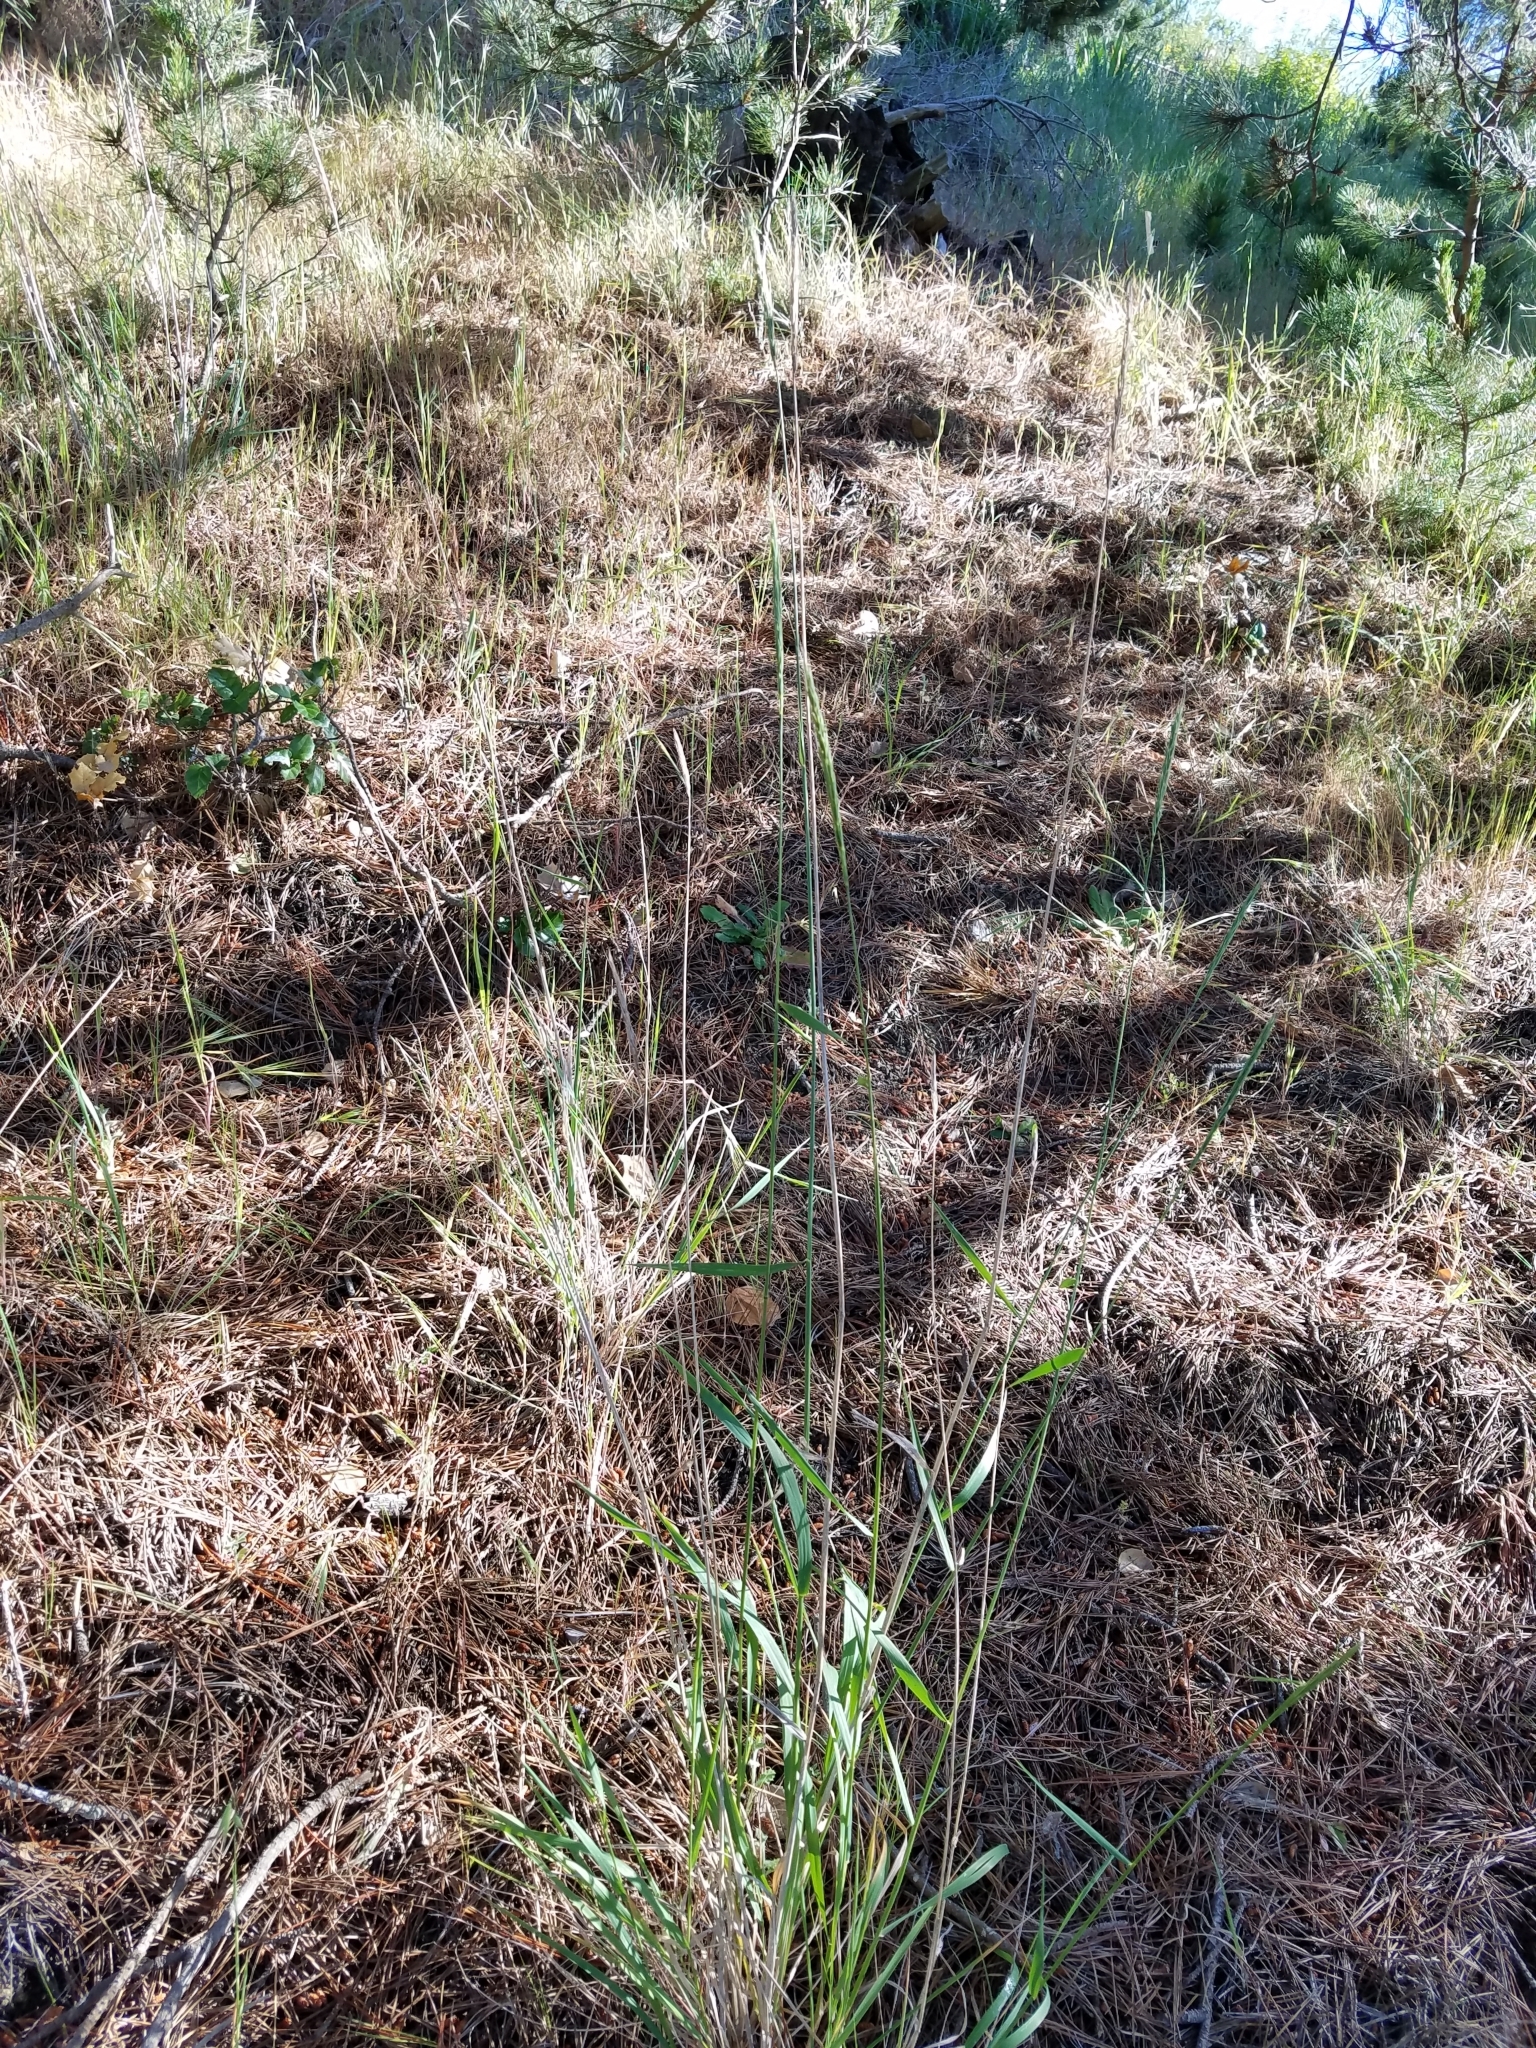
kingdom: Plantae
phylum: Tracheophyta
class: Liliopsida
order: Poales
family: Poaceae
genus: Elymus
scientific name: Elymus glaucus
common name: Blue wild rye
